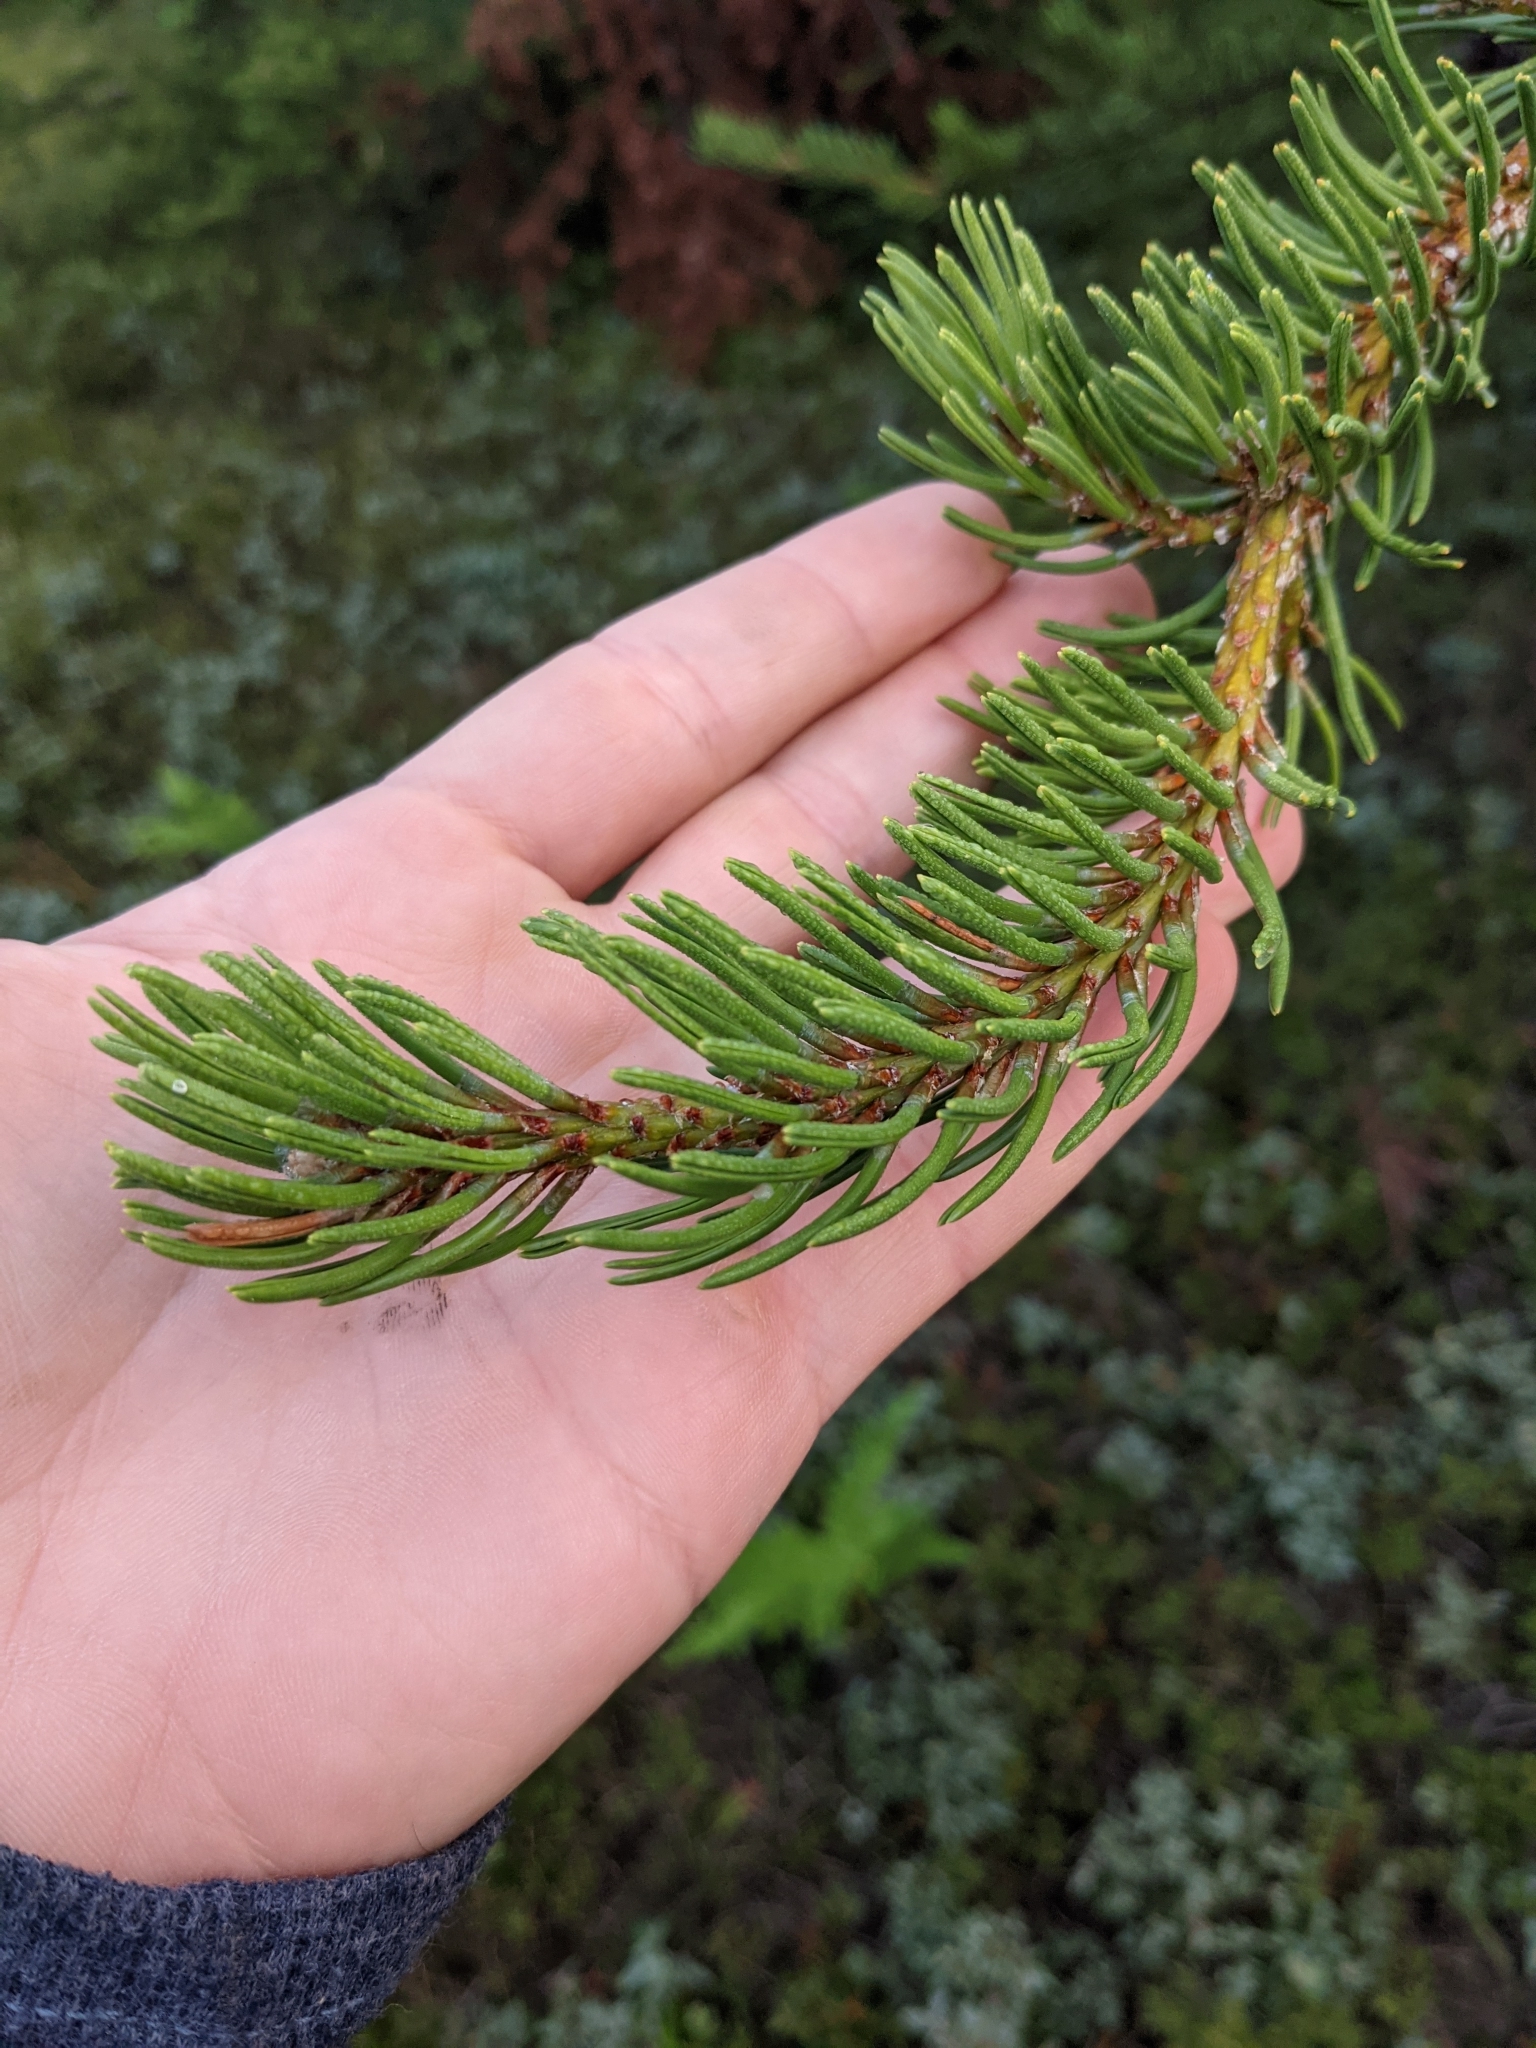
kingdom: Plantae
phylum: Tracheophyta
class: Pinopsida
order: Pinales
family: Pinaceae
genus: Pinus
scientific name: Pinus banksiana
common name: Jack pine
